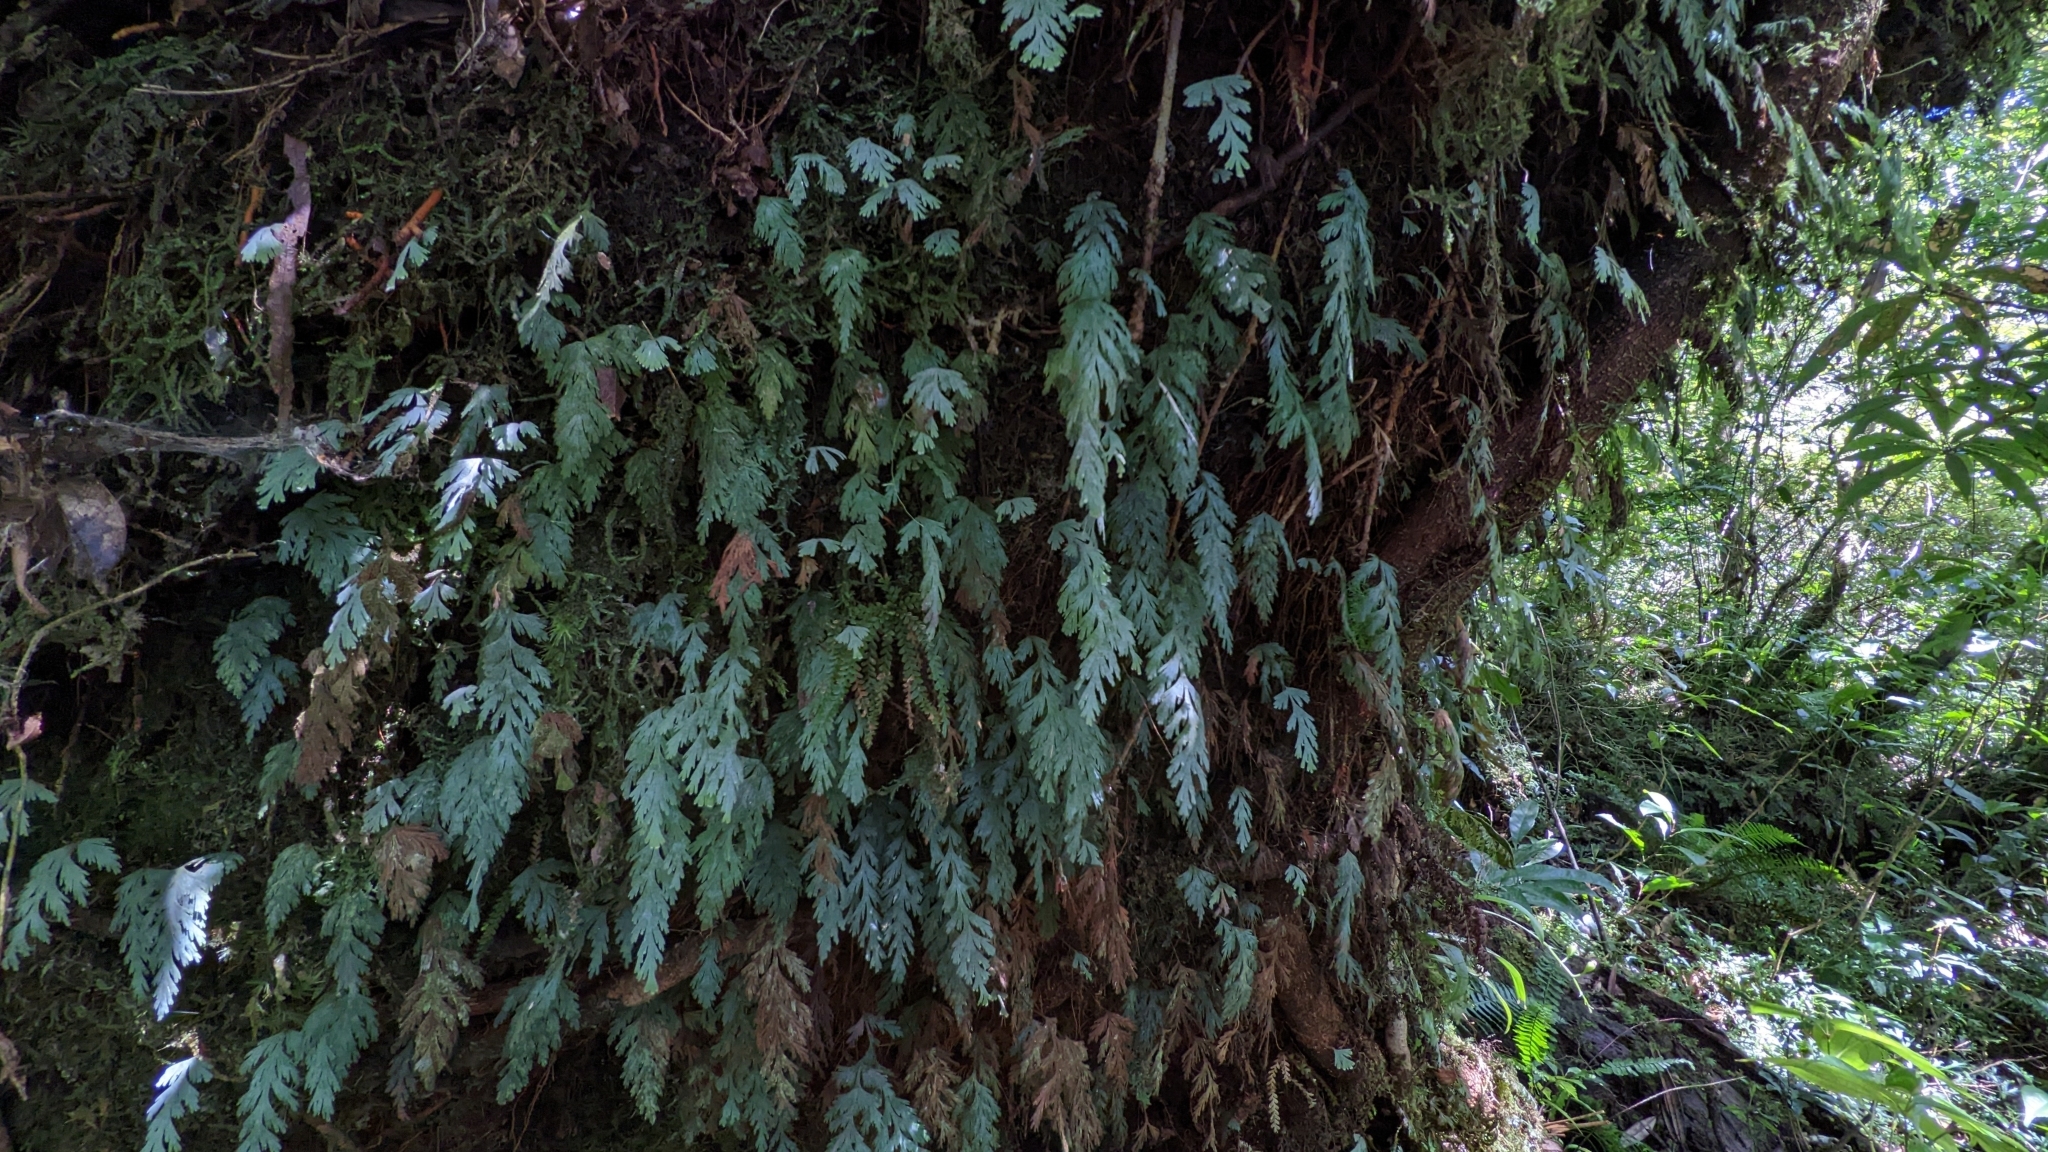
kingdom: Plantae
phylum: Tracheophyta
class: Polypodiopsida
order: Hymenophyllales
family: Hymenophyllaceae
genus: Hymenophyllum
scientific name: Hymenophyllum pallidum
